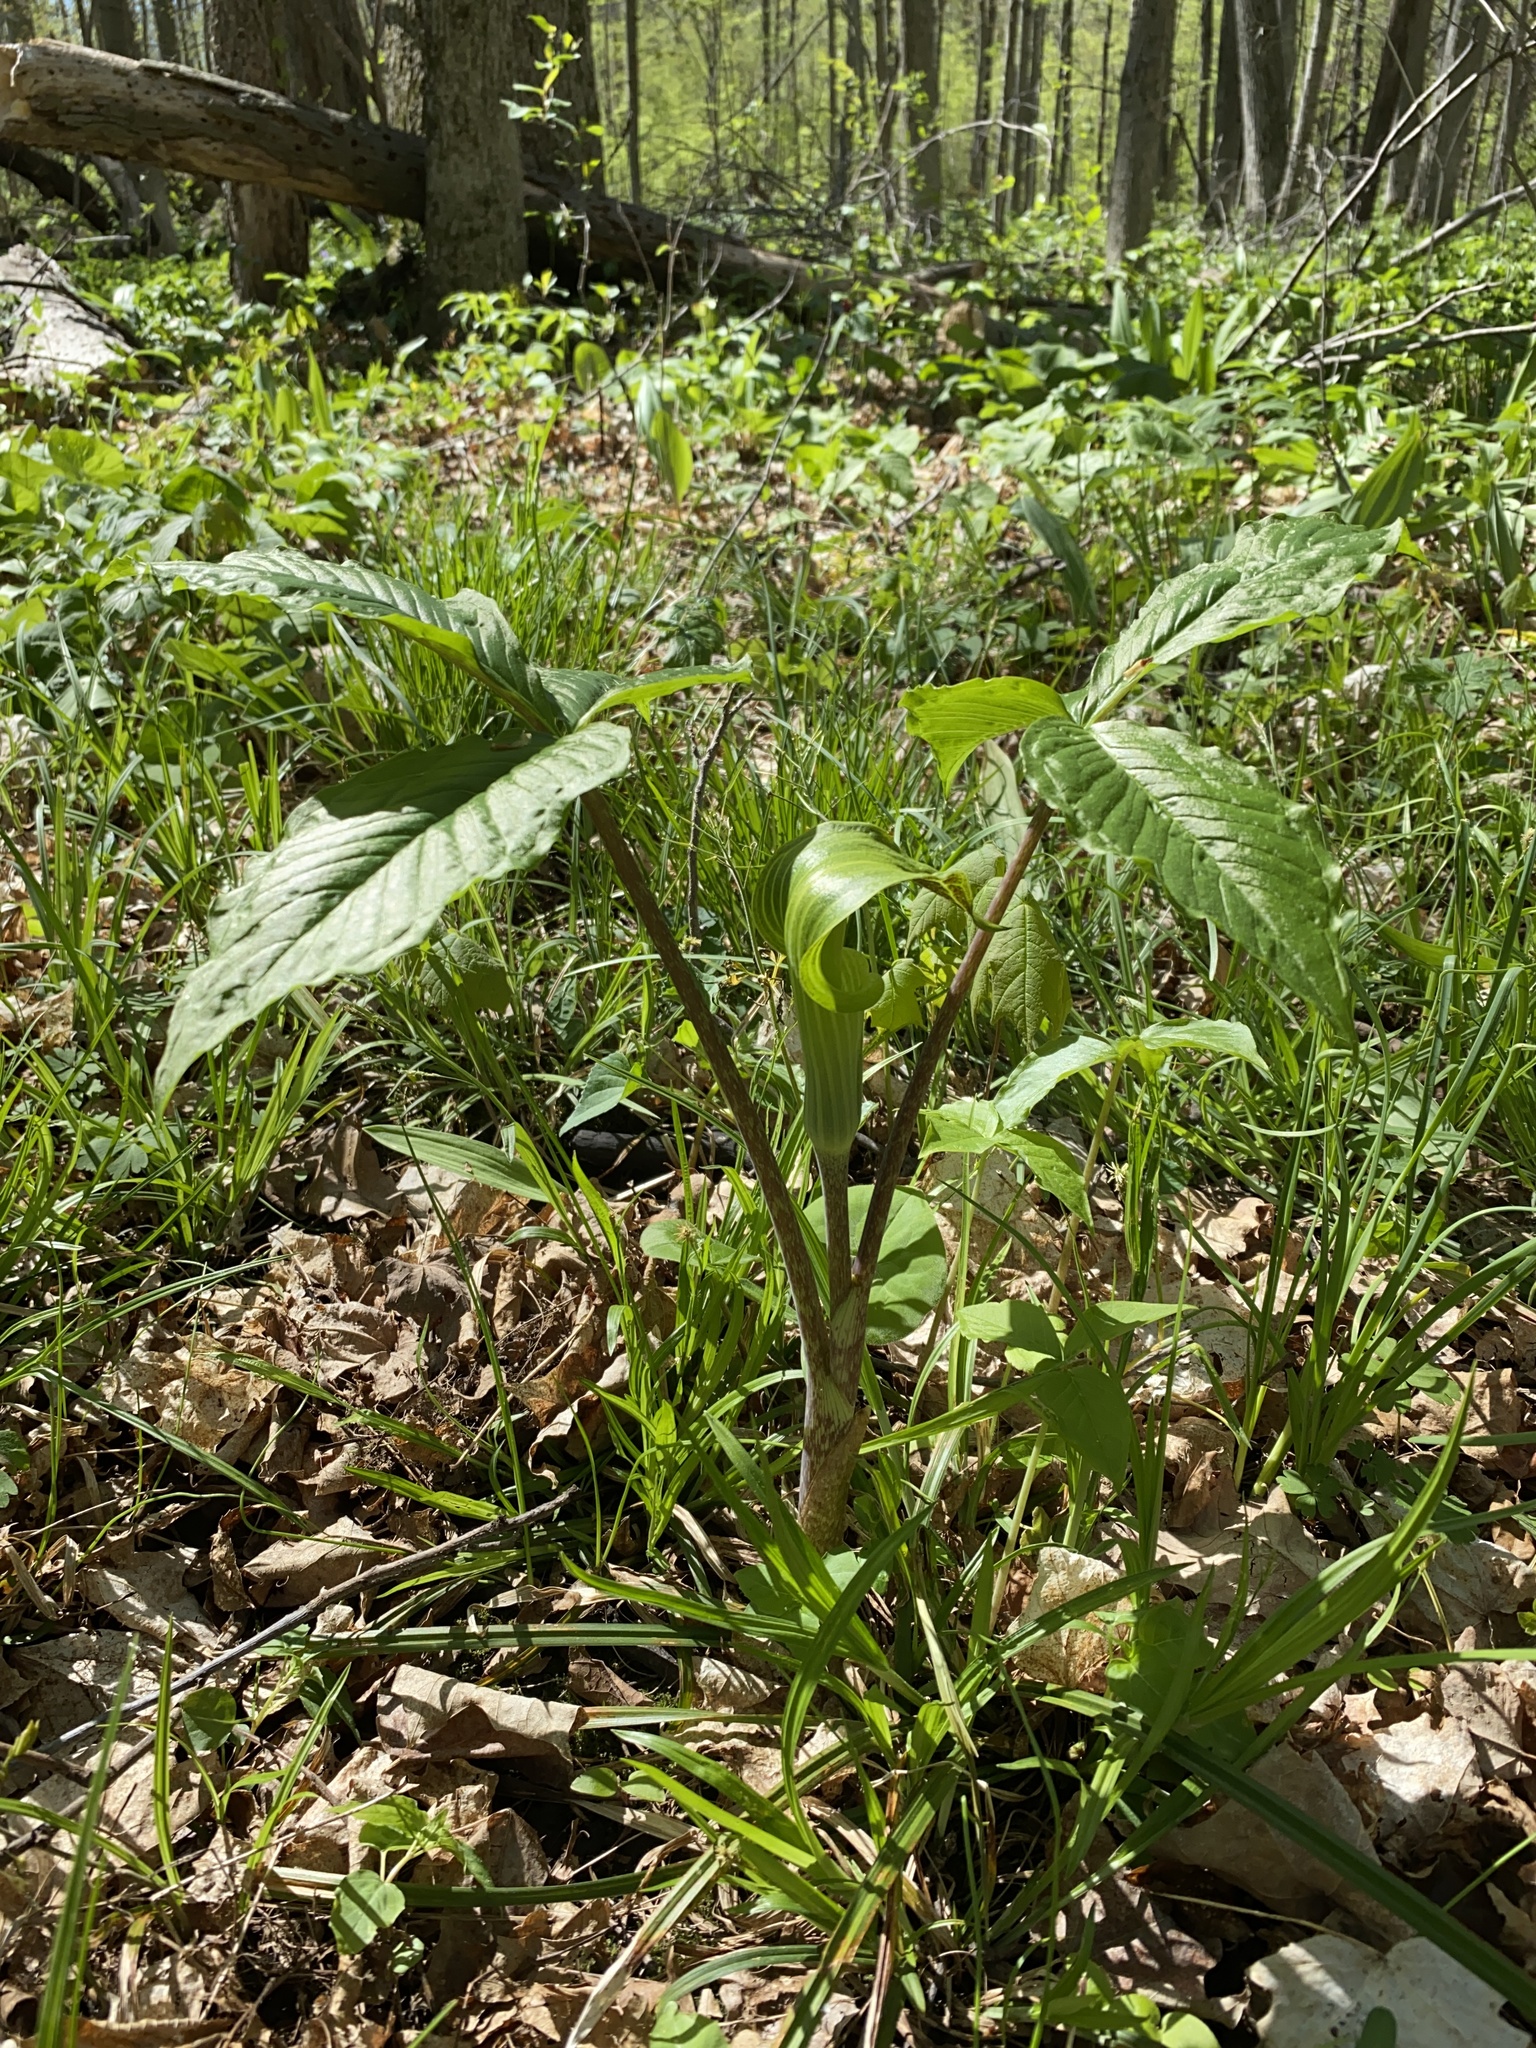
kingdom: Plantae
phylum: Tracheophyta
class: Liliopsida
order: Alismatales
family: Araceae
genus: Arisaema
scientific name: Arisaema triphyllum
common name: Jack-in-the-pulpit
